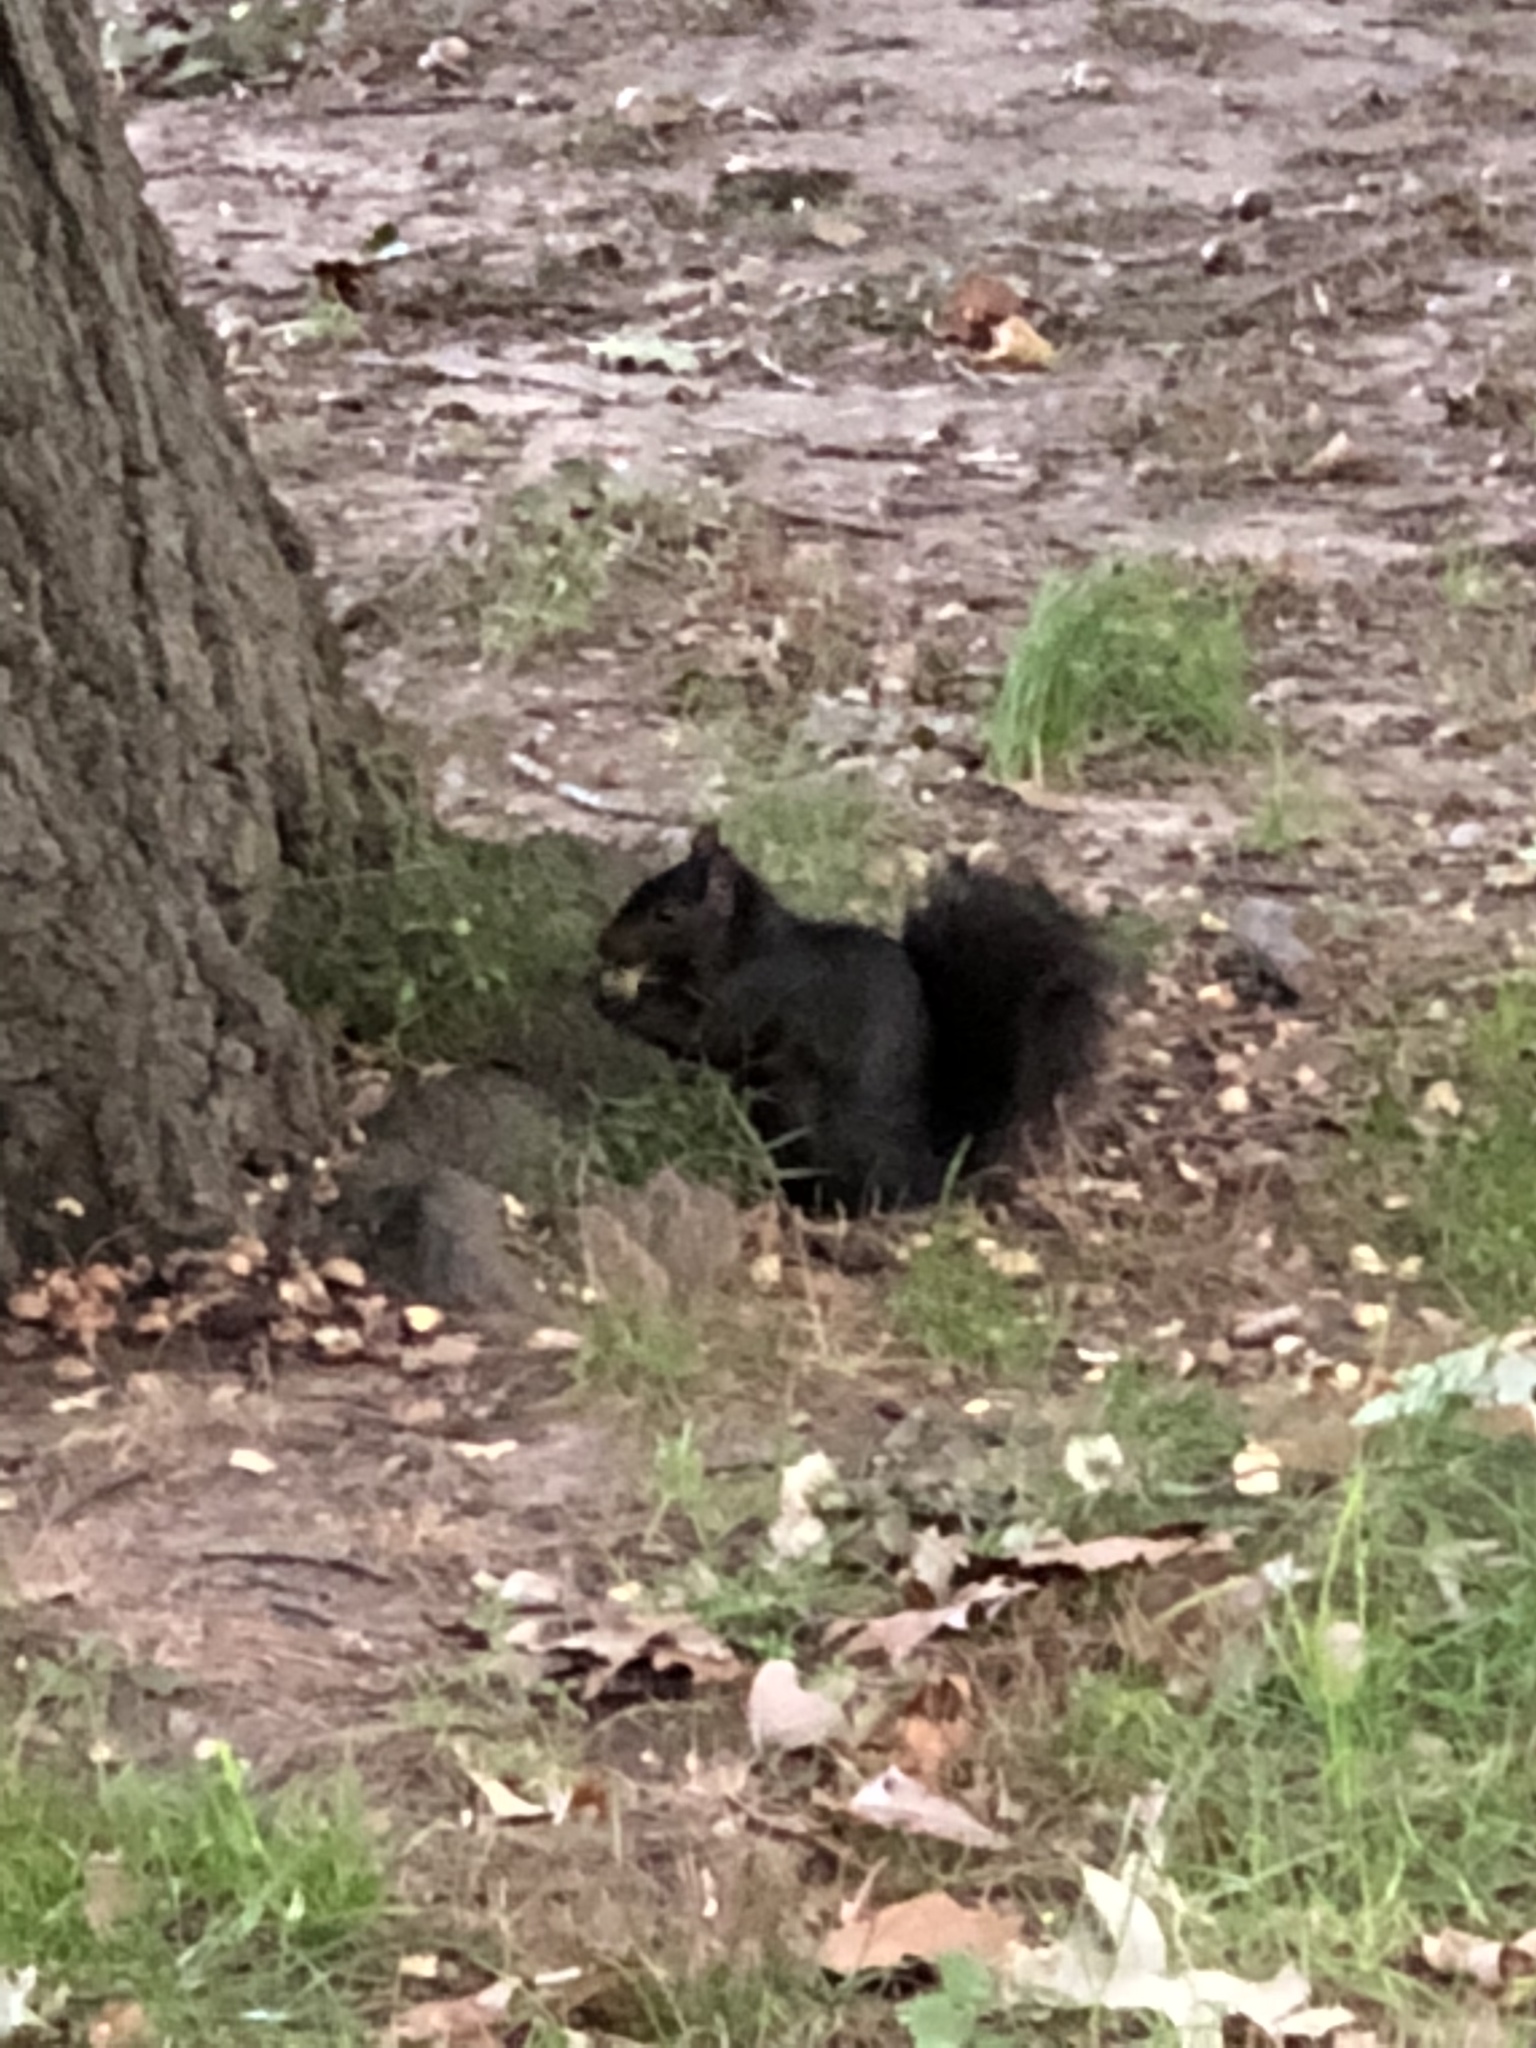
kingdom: Animalia
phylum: Chordata
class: Mammalia
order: Rodentia
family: Sciuridae
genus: Sciurus
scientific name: Sciurus carolinensis
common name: Eastern gray squirrel
